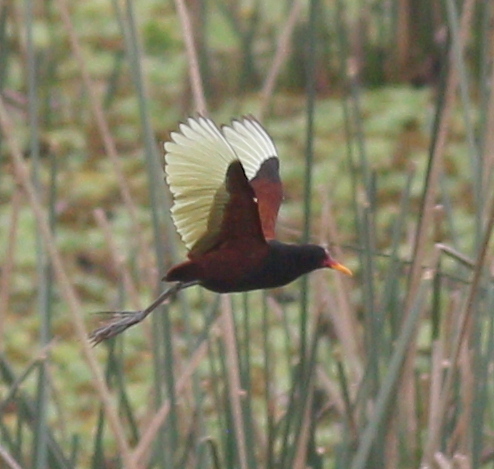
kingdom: Animalia
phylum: Chordata
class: Aves
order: Charadriiformes
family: Jacanidae
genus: Jacana
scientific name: Jacana jacana
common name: Wattled jacana
